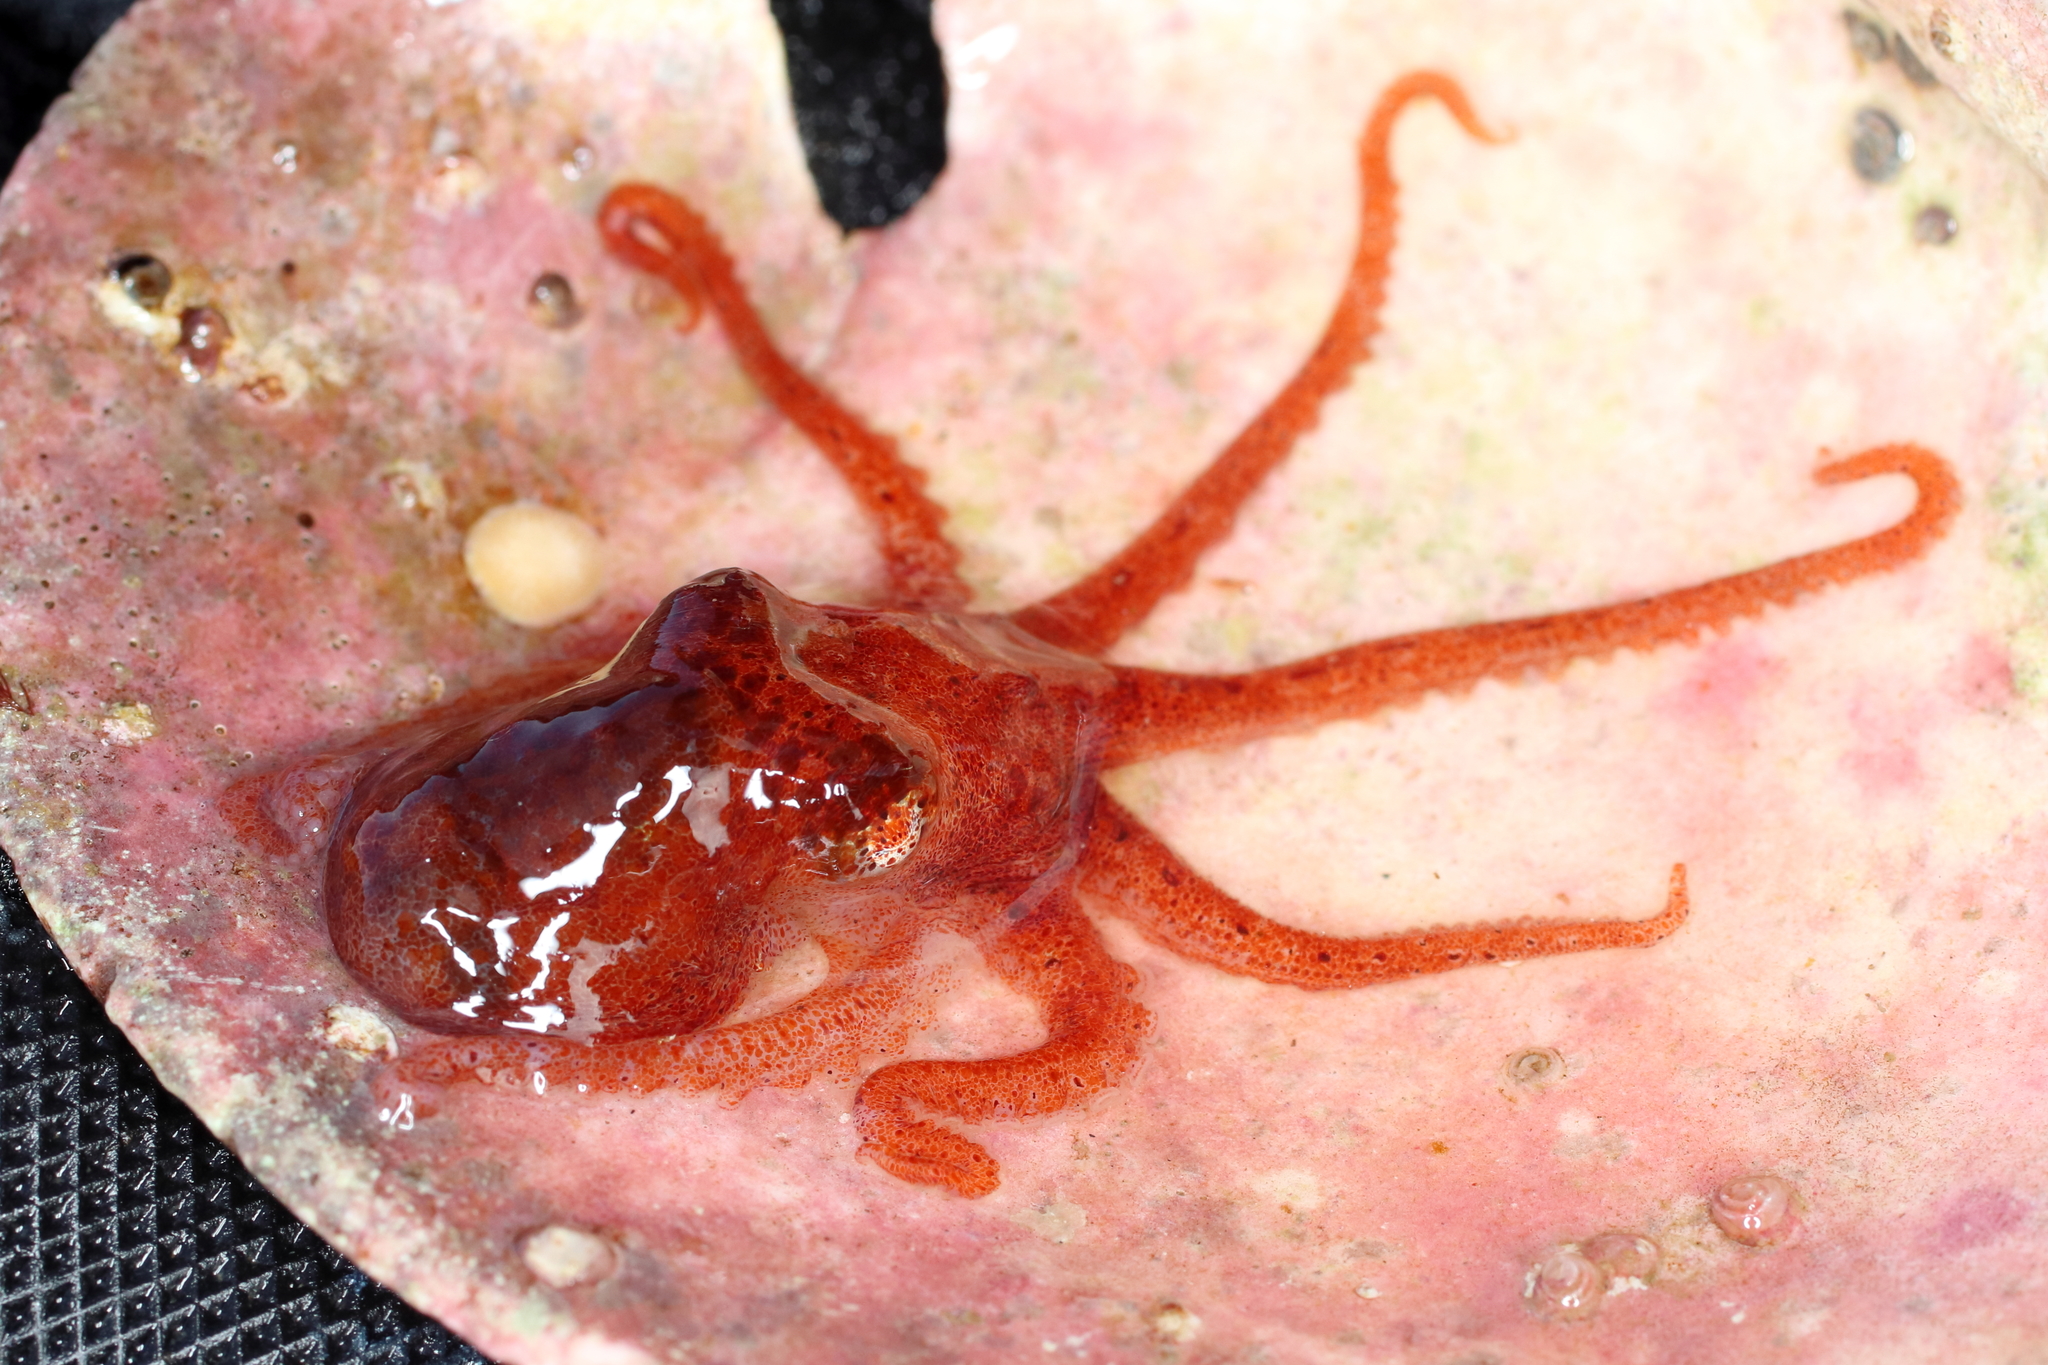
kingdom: Animalia
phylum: Mollusca
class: Cephalopoda
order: Octopoda
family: Enteroctopodidae
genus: Enteroctopus
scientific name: Enteroctopus dofleini
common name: Giant north pacific octopus
